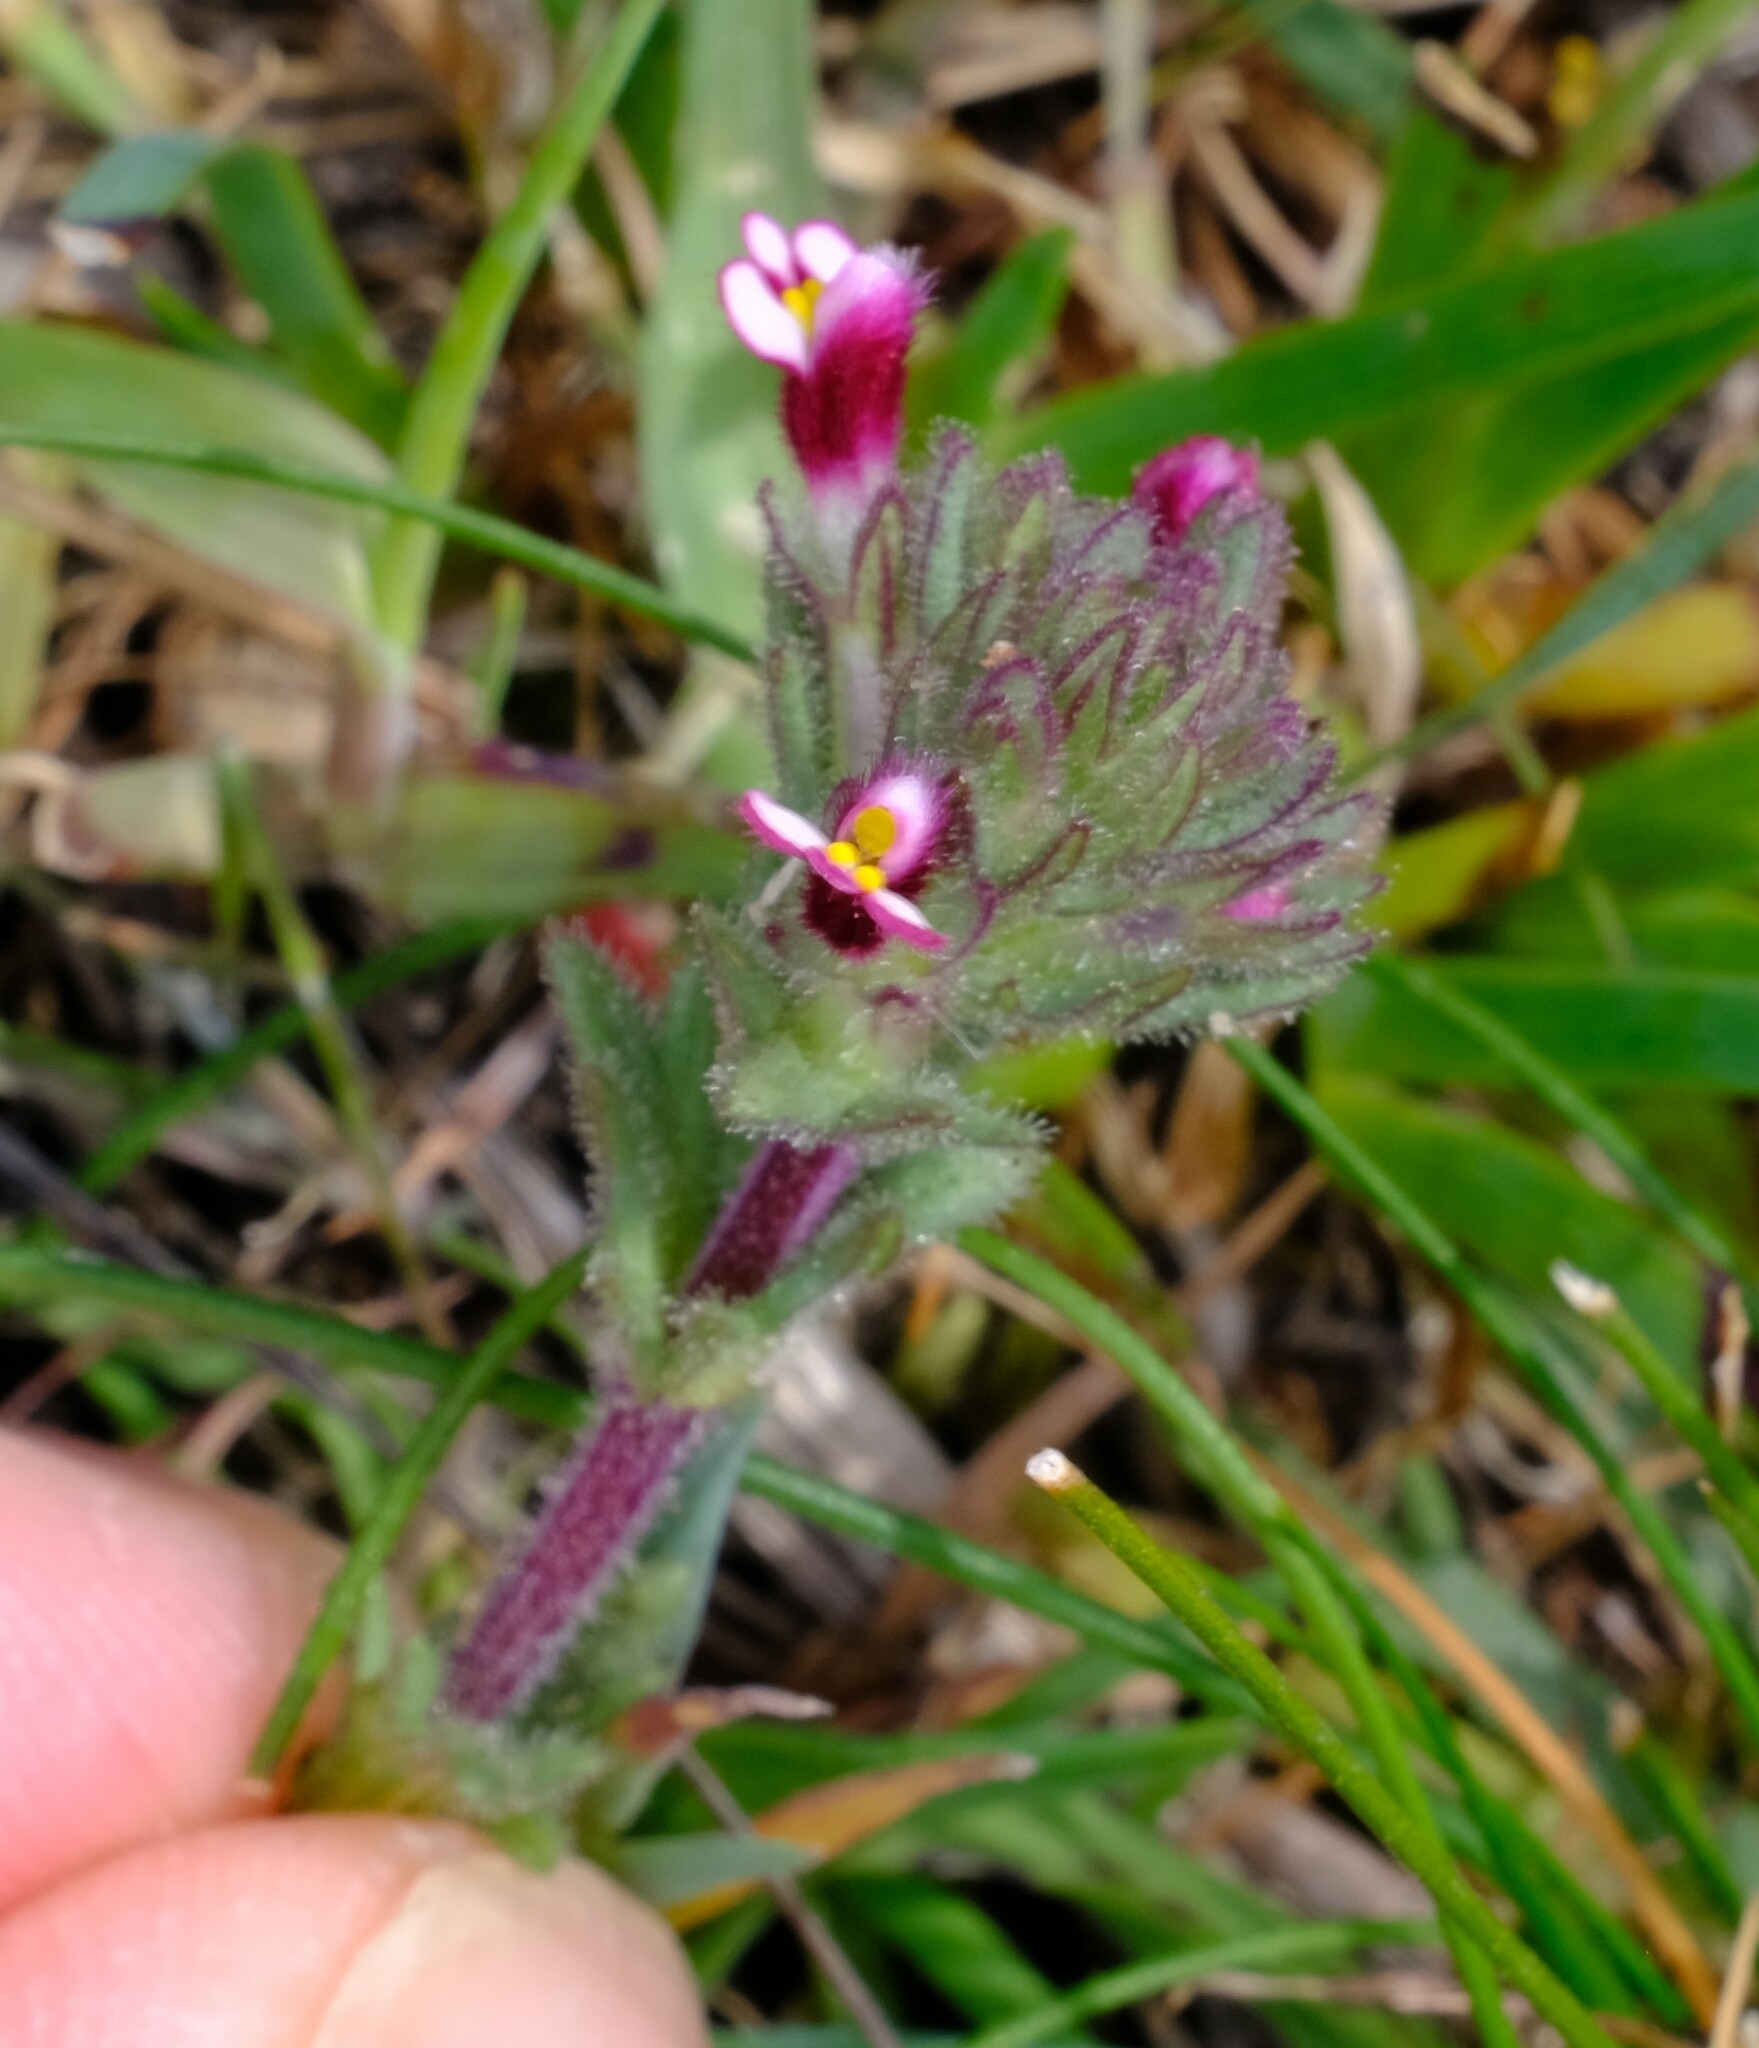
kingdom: Plantae
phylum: Tracheophyta
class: Magnoliopsida
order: Lamiales
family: Orobanchaceae
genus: Parentucellia
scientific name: Parentucellia latifolia
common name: Broadleaf glandweed
